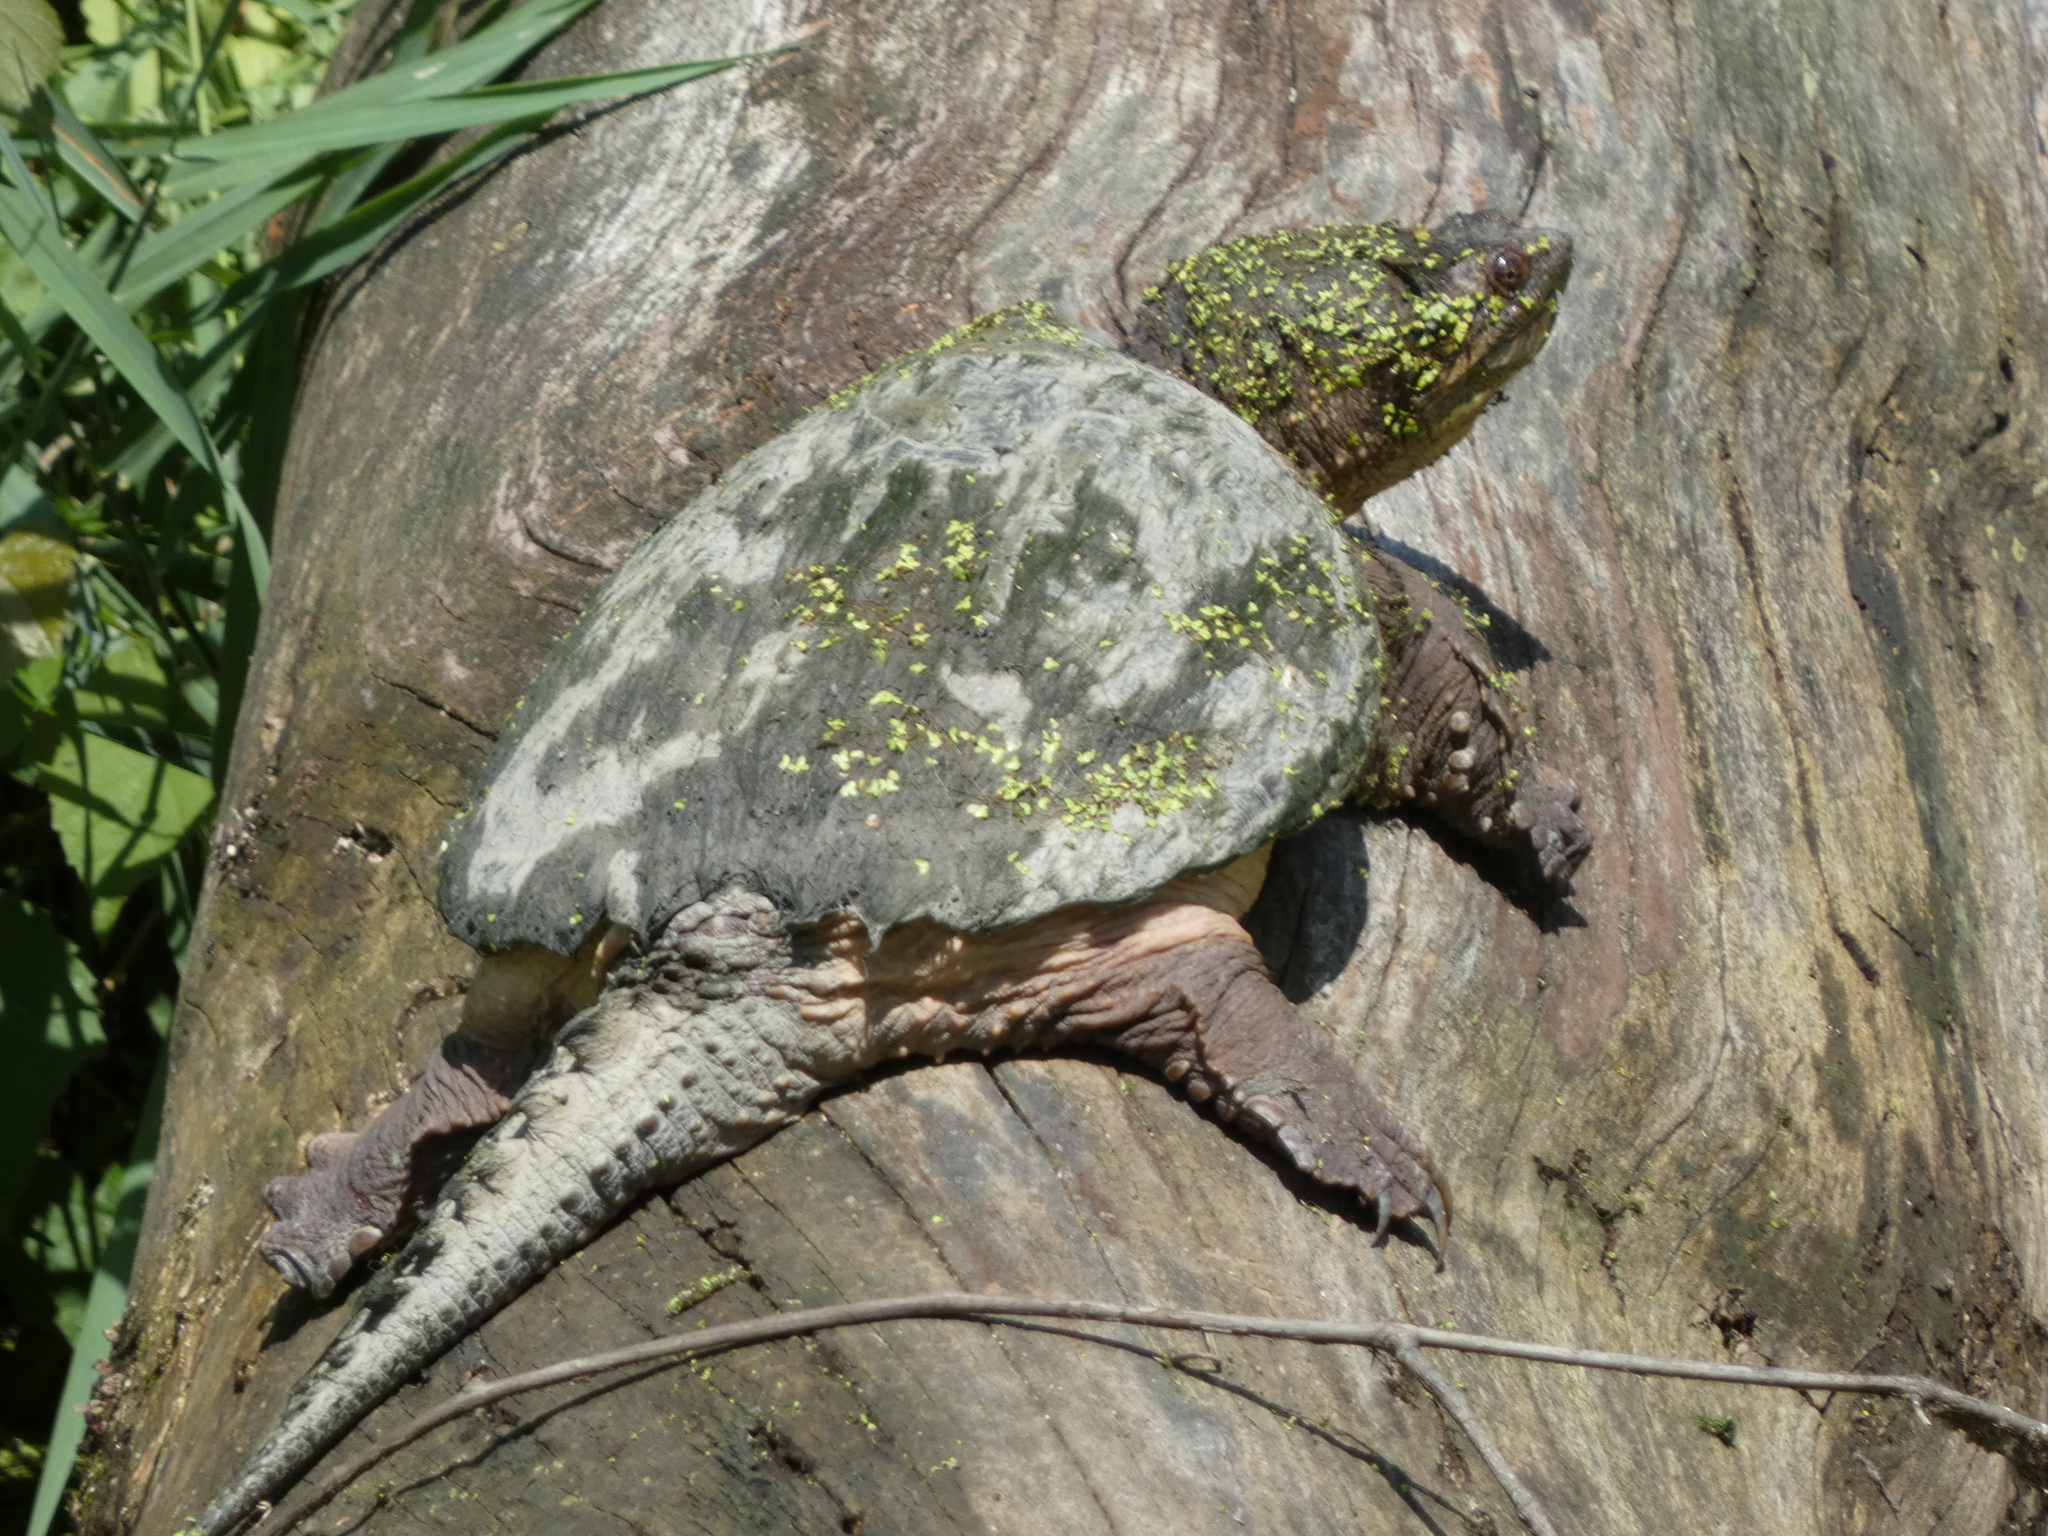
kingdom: Animalia
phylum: Chordata
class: Testudines
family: Chelydridae
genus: Chelydra
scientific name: Chelydra serpentina
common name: Common snapping turtle
